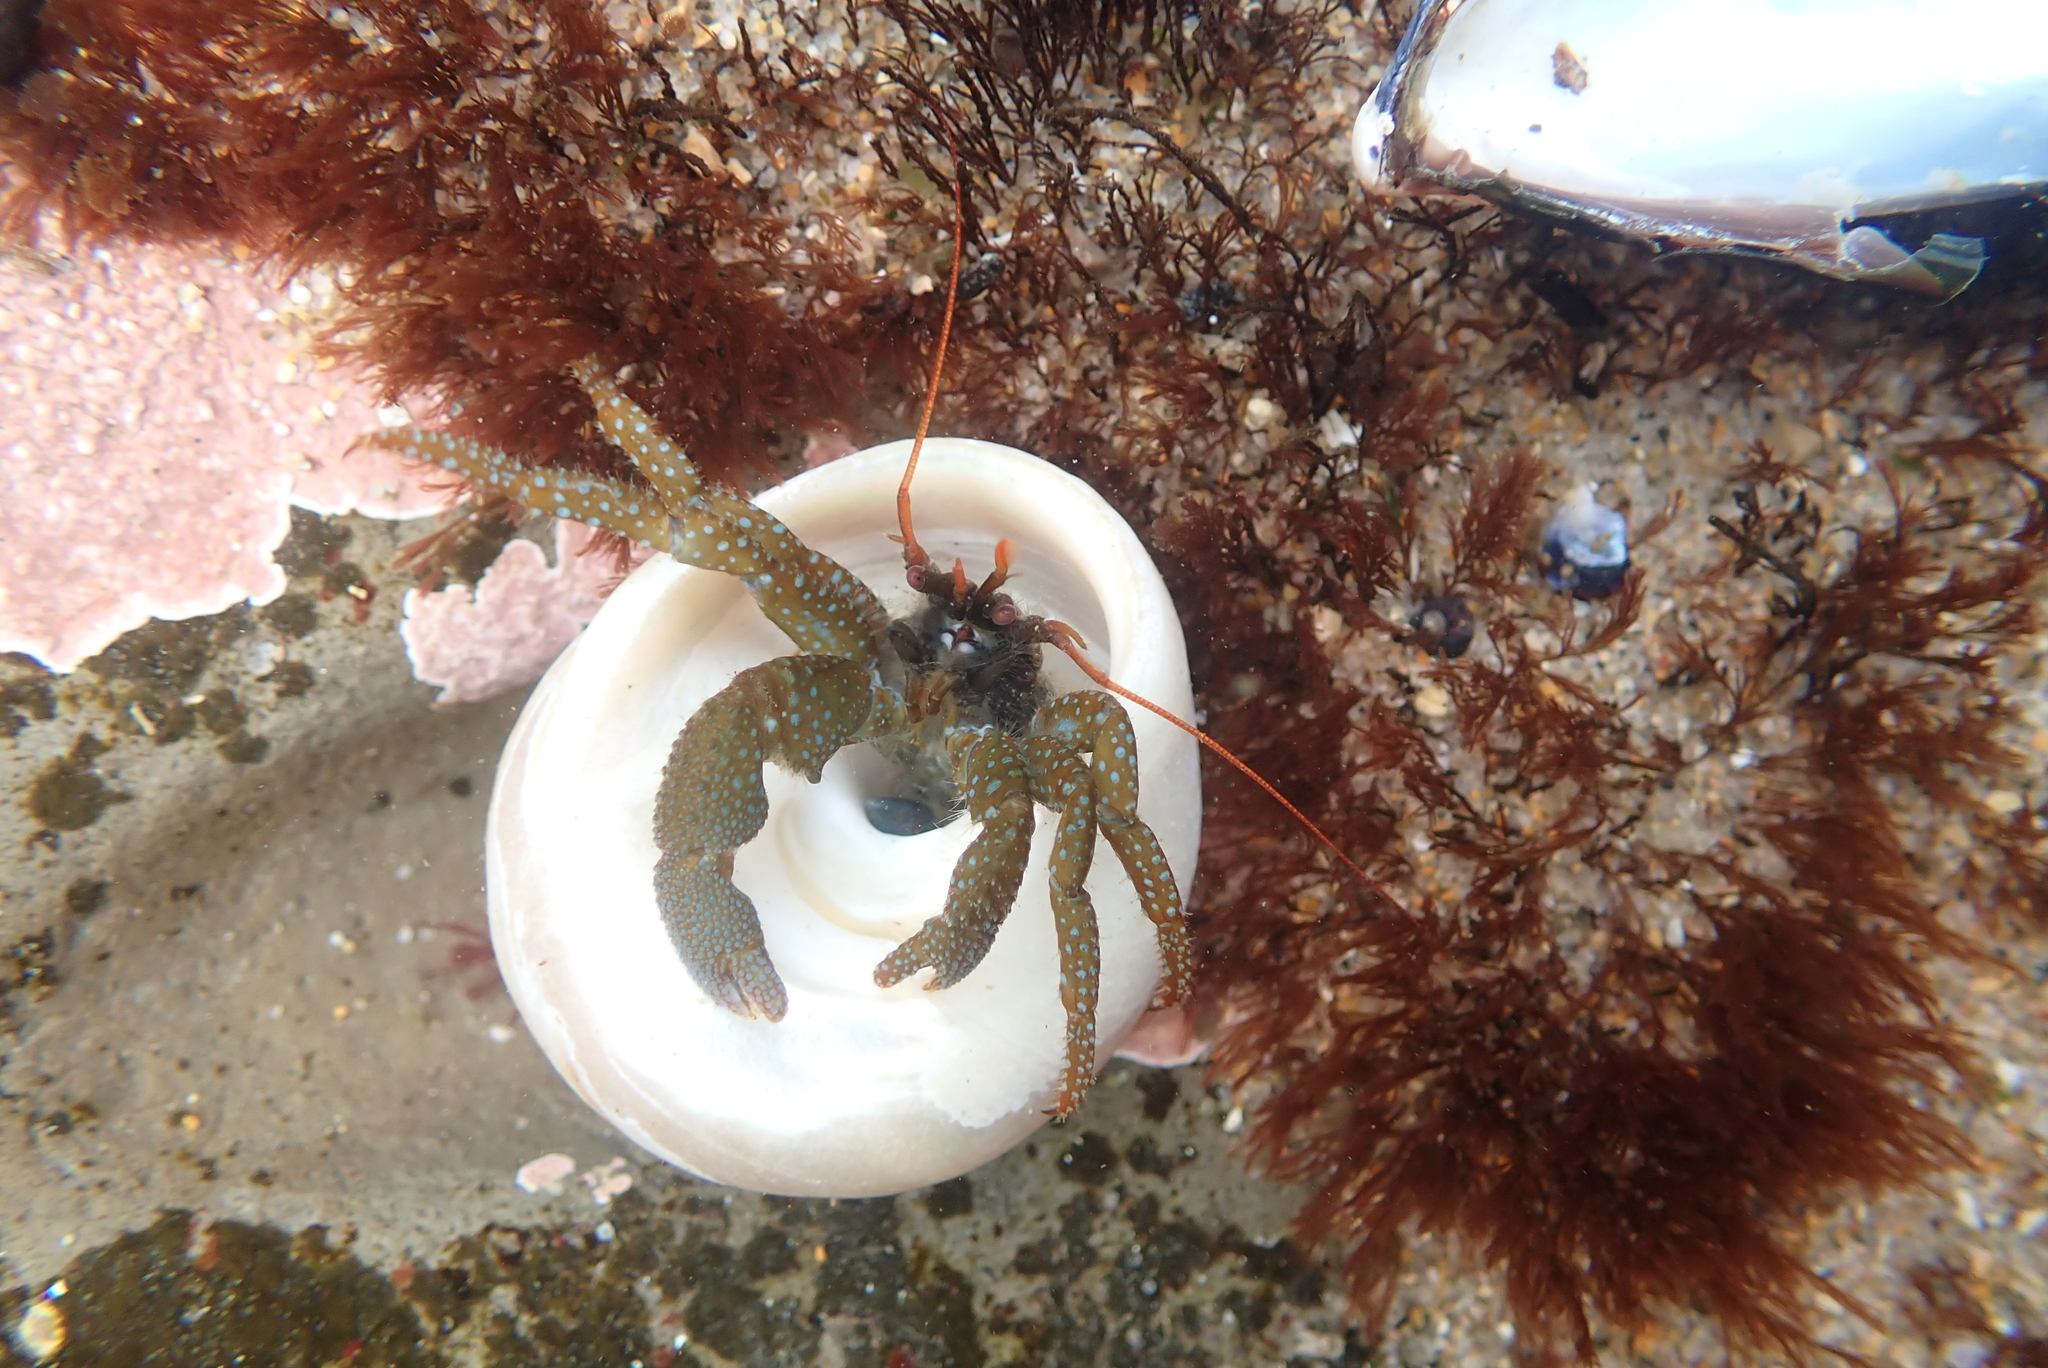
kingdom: Animalia
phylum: Arthropoda
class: Malacostraca
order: Decapoda
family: Paguridae
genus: Pagurus
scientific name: Pagurus granosimanus
